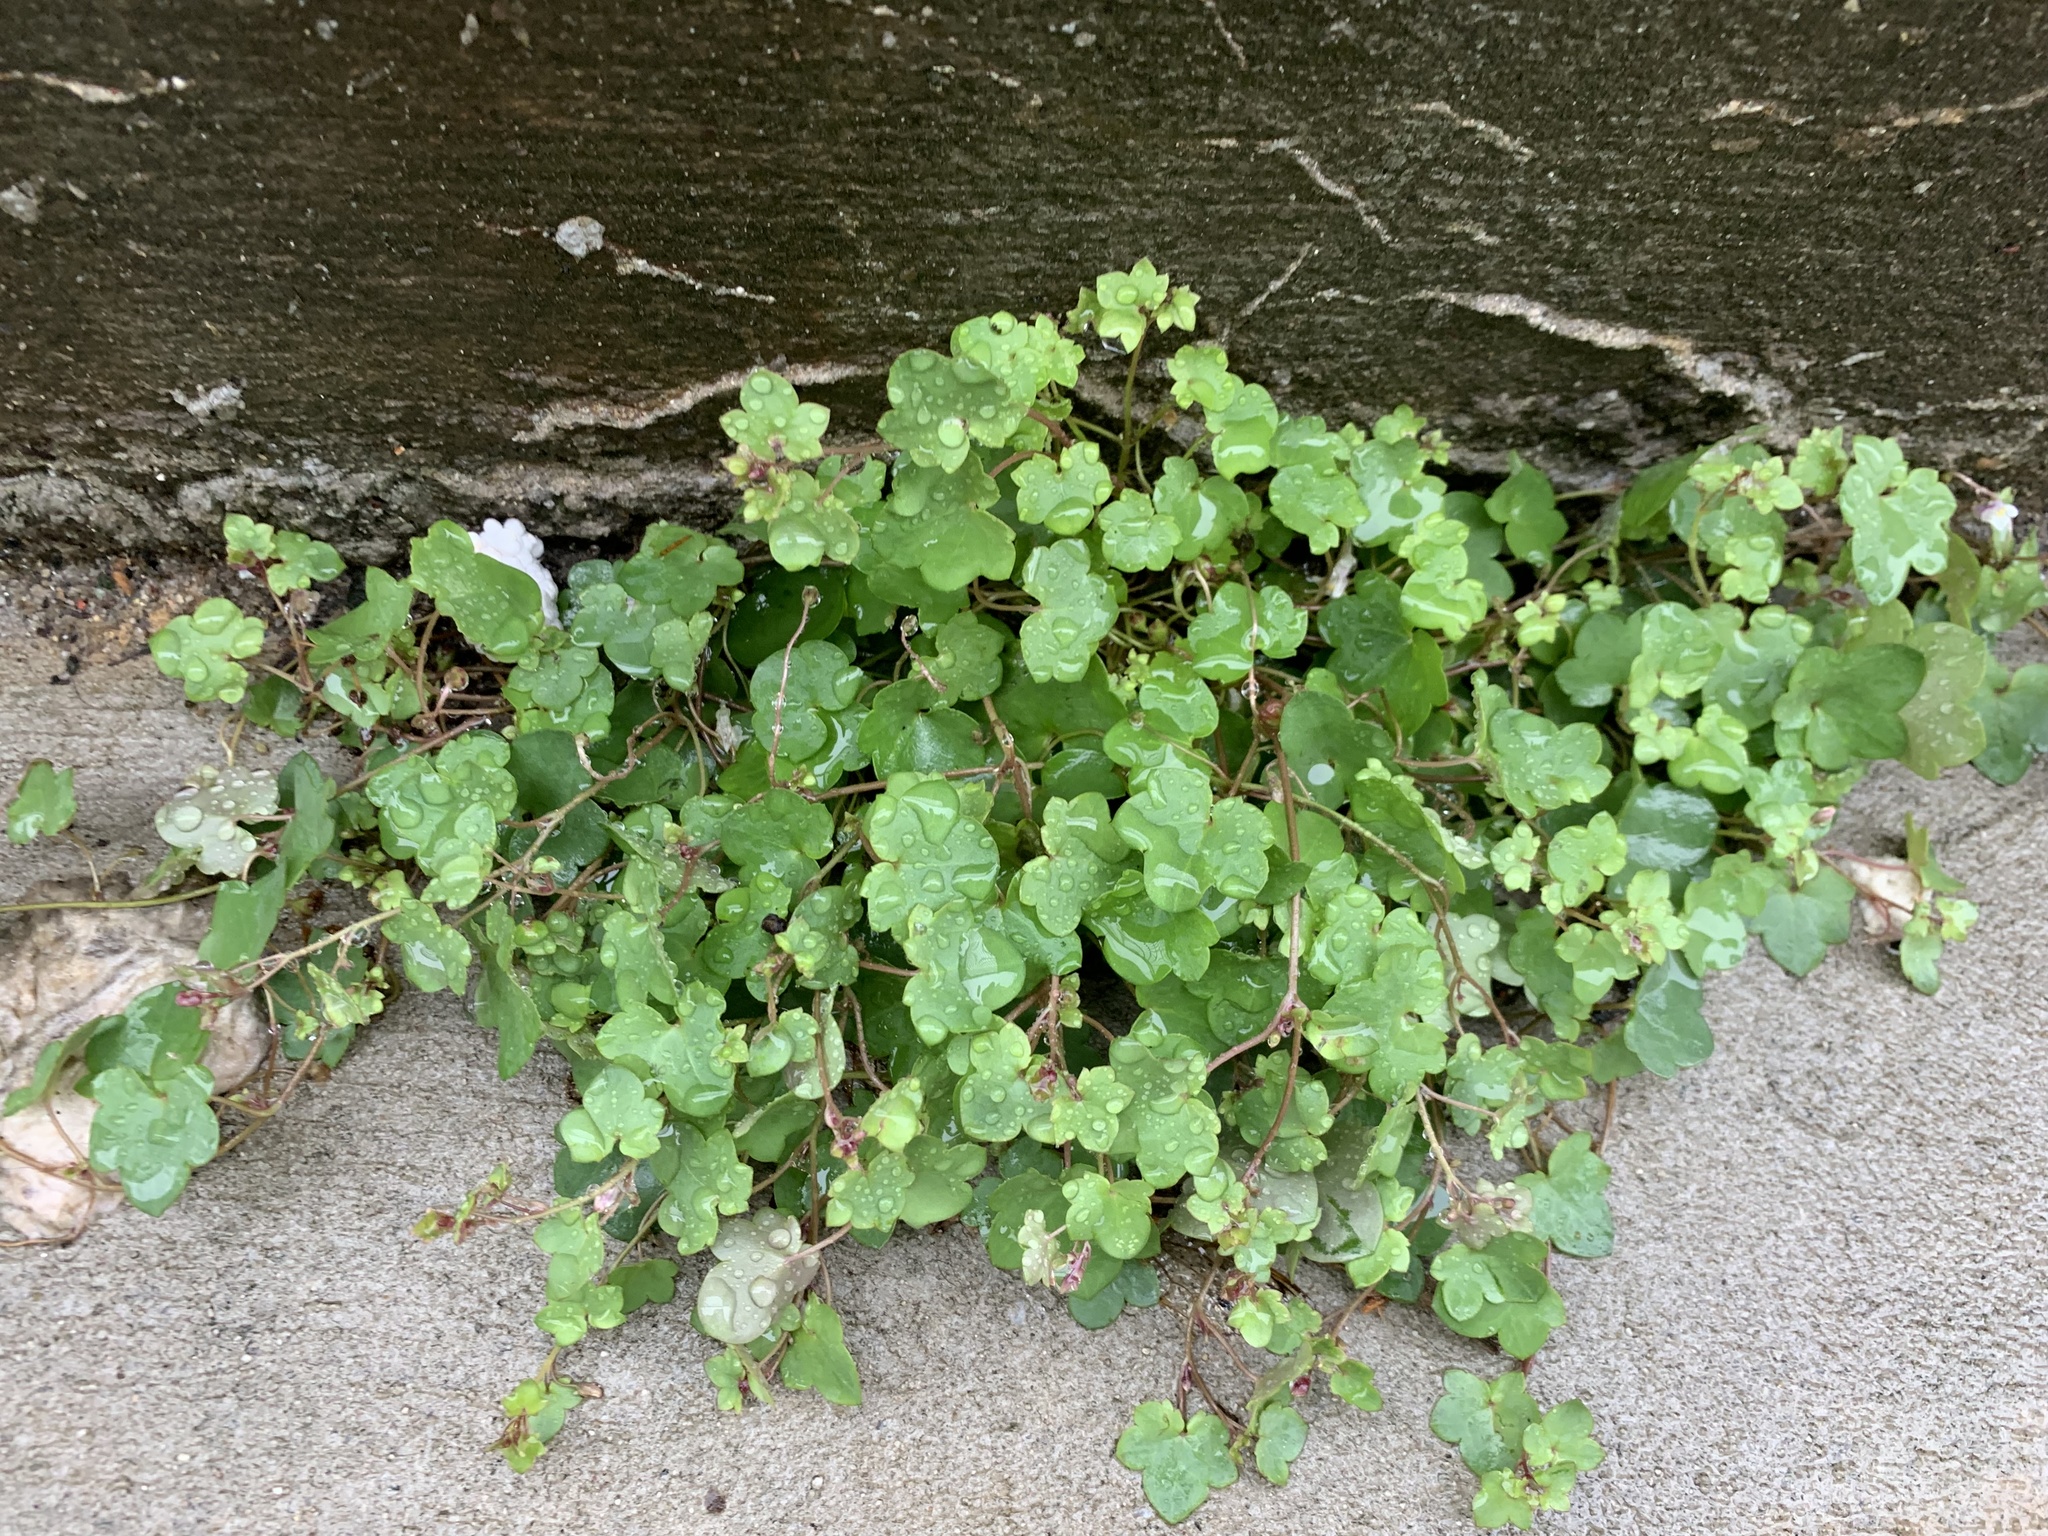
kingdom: Plantae
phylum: Tracheophyta
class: Magnoliopsida
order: Lamiales
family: Plantaginaceae
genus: Cymbalaria
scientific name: Cymbalaria muralis
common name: Ivy-leaved toadflax
